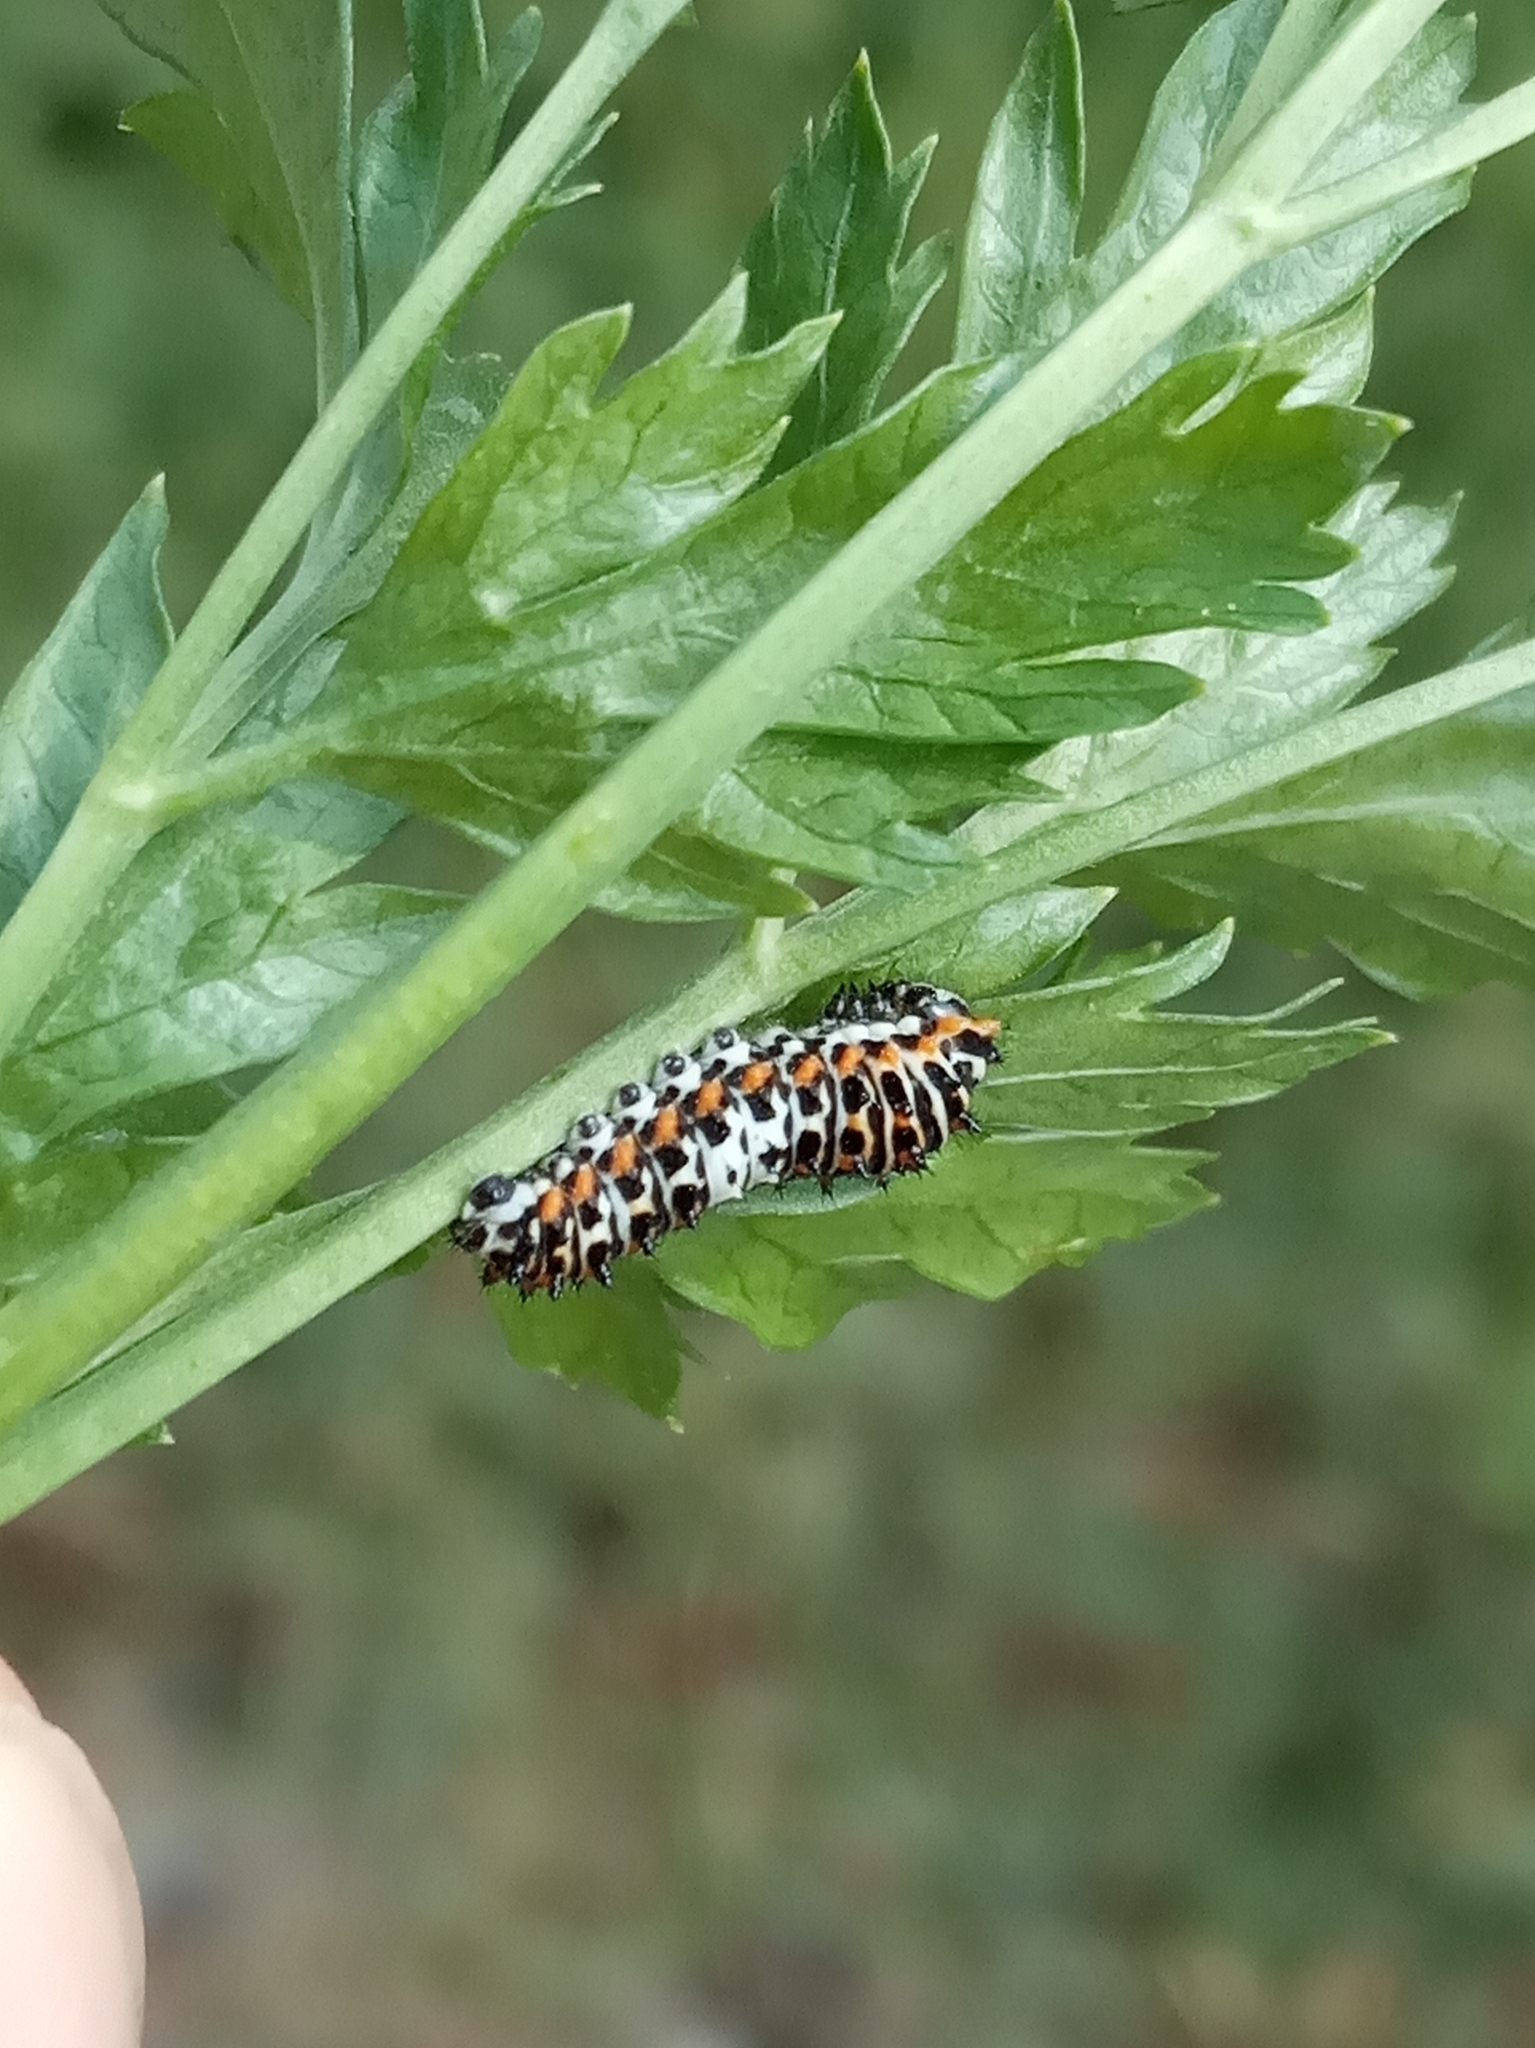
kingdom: Animalia
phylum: Arthropoda
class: Insecta
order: Lepidoptera
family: Papilionidae
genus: Papilio
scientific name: Papilio machaon
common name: Swallowtail
